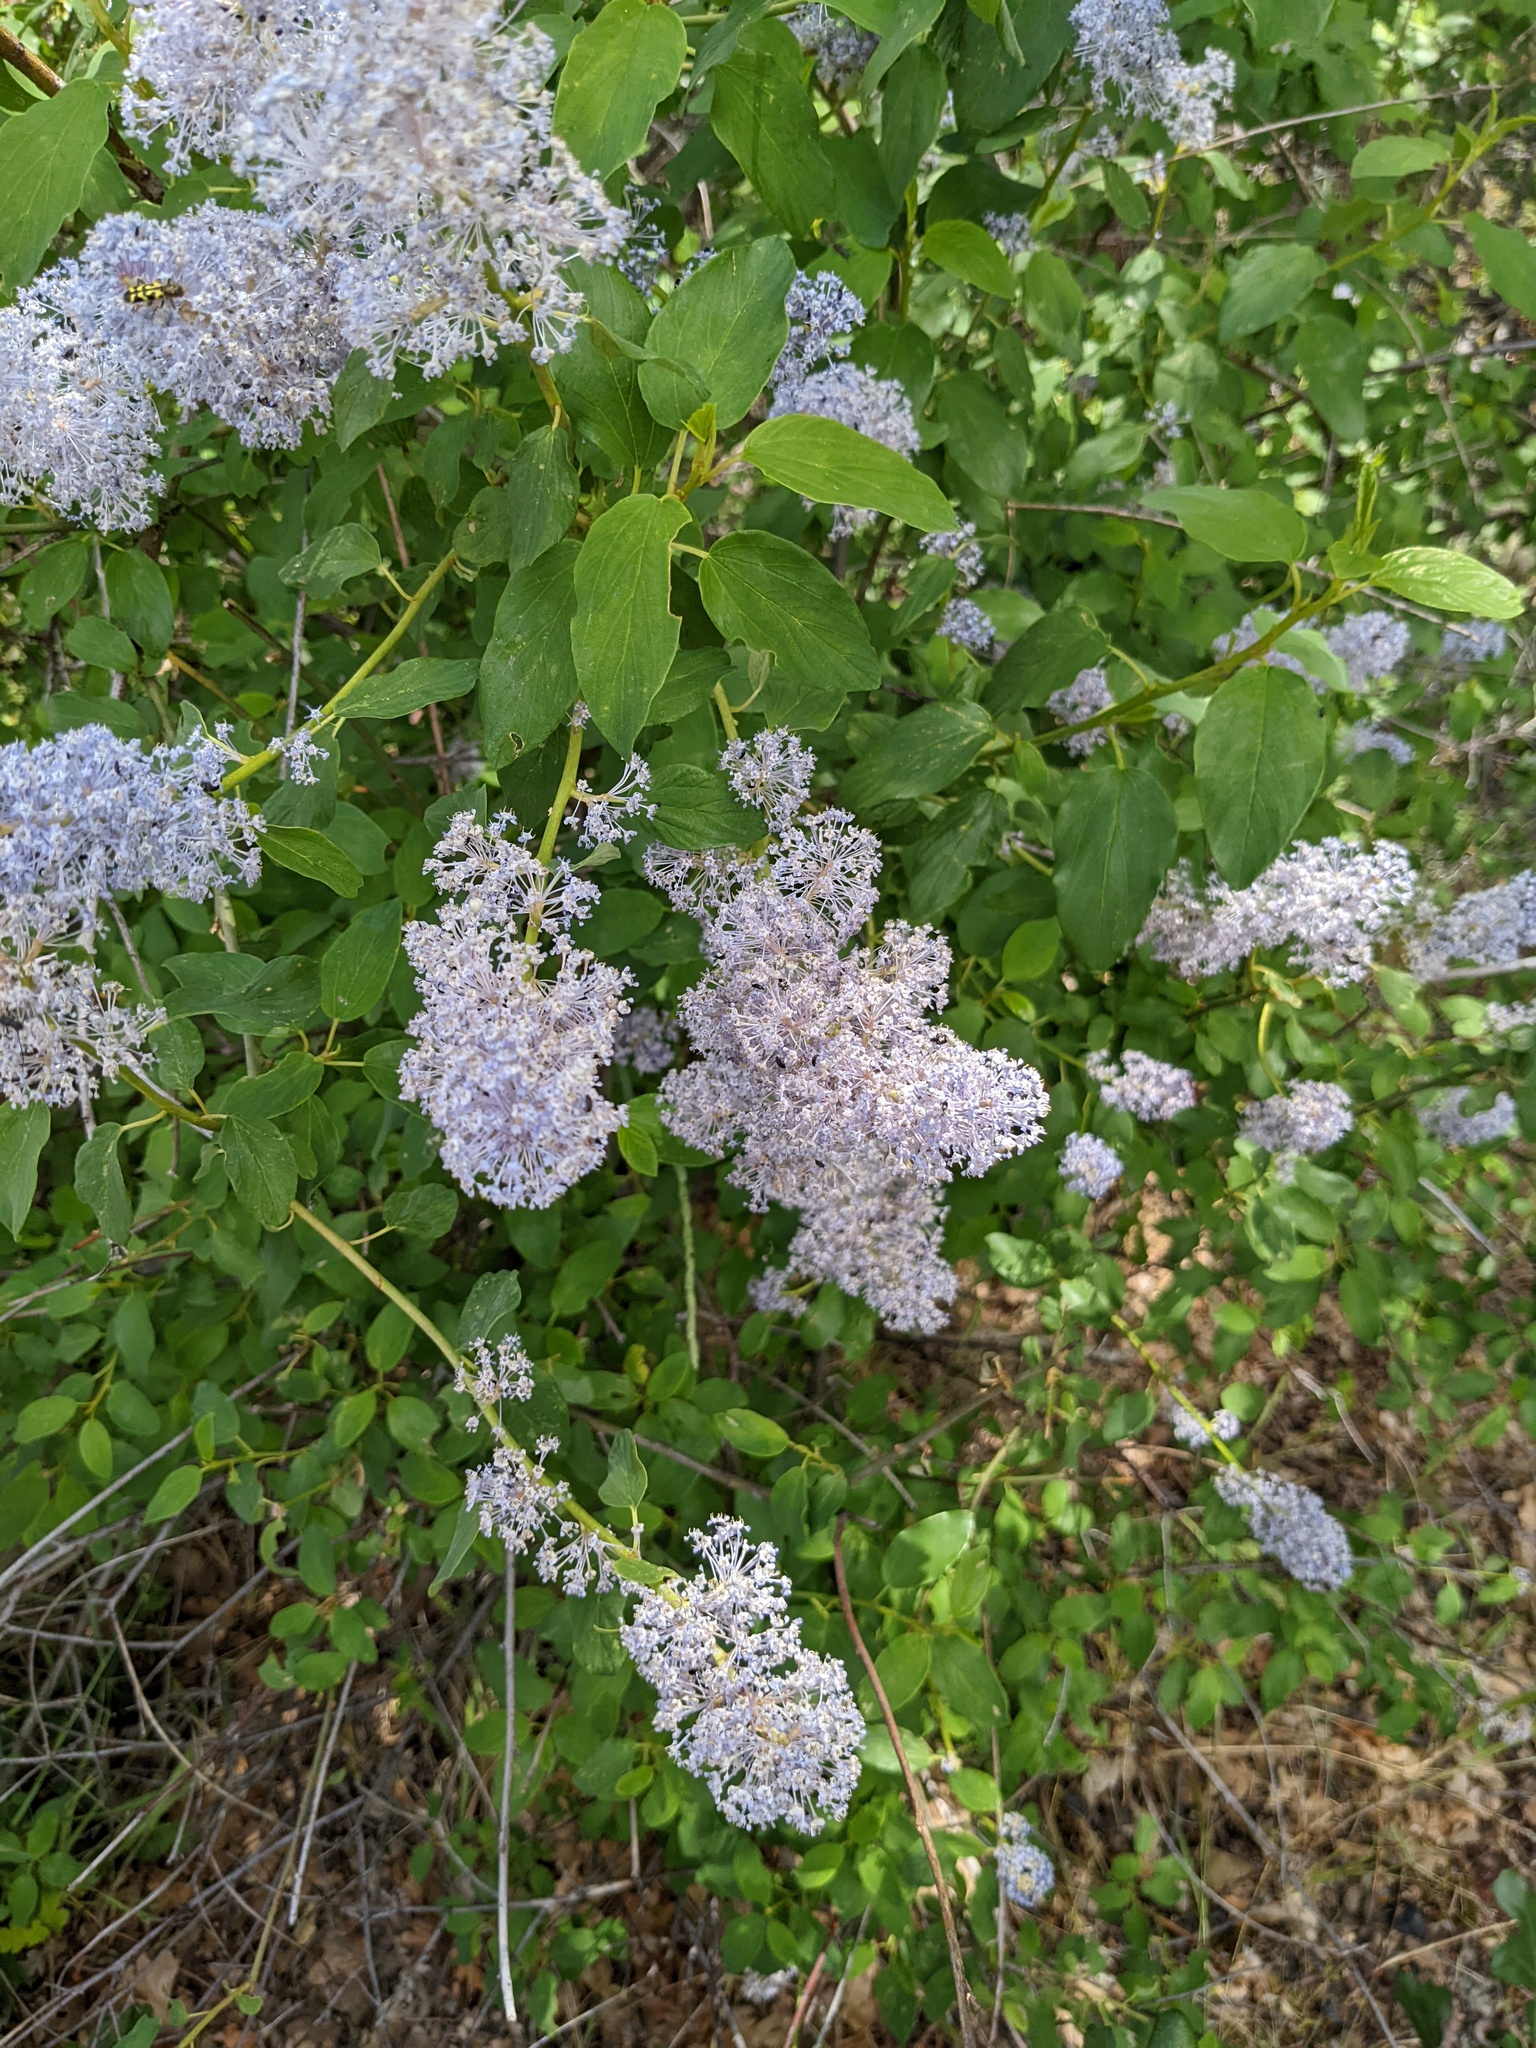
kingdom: Plantae
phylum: Tracheophyta
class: Magnoliopsida
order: Rosales
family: Rhamnaceae
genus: Ceanothus
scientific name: Ceanothus integerrimus
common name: Deerbrush ceanothus
